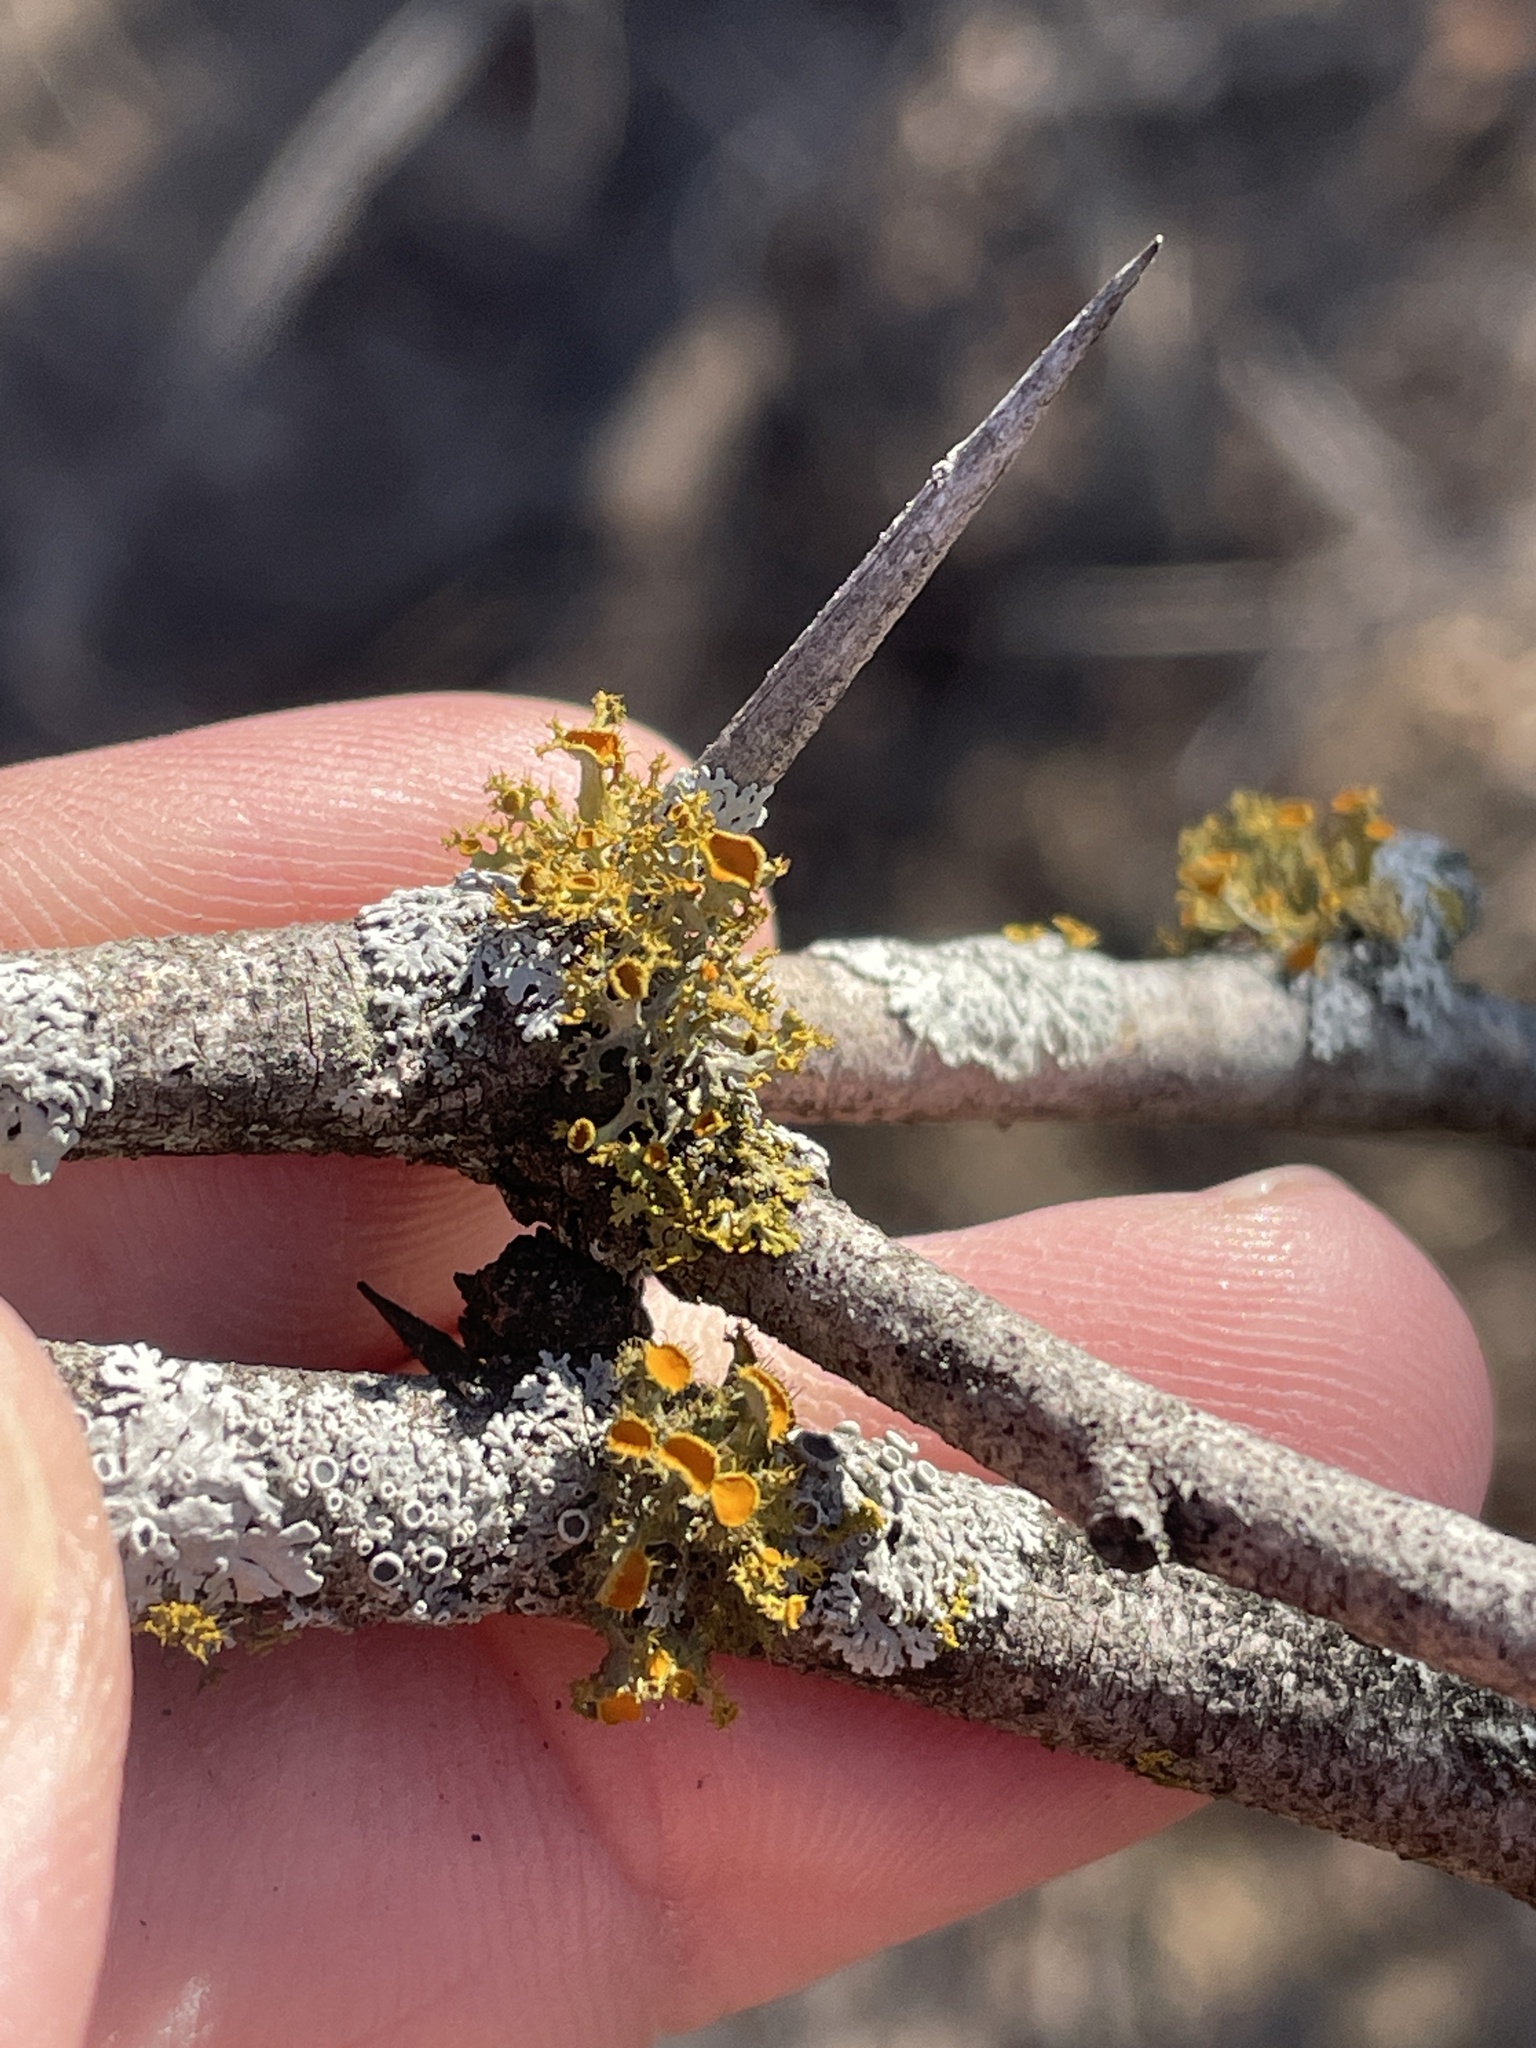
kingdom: Fungi
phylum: Ascomycota
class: Lecanoromycetes
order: Teloschistales
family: Teloschistaceae
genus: Niorma
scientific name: Niorma chrysophthalma
